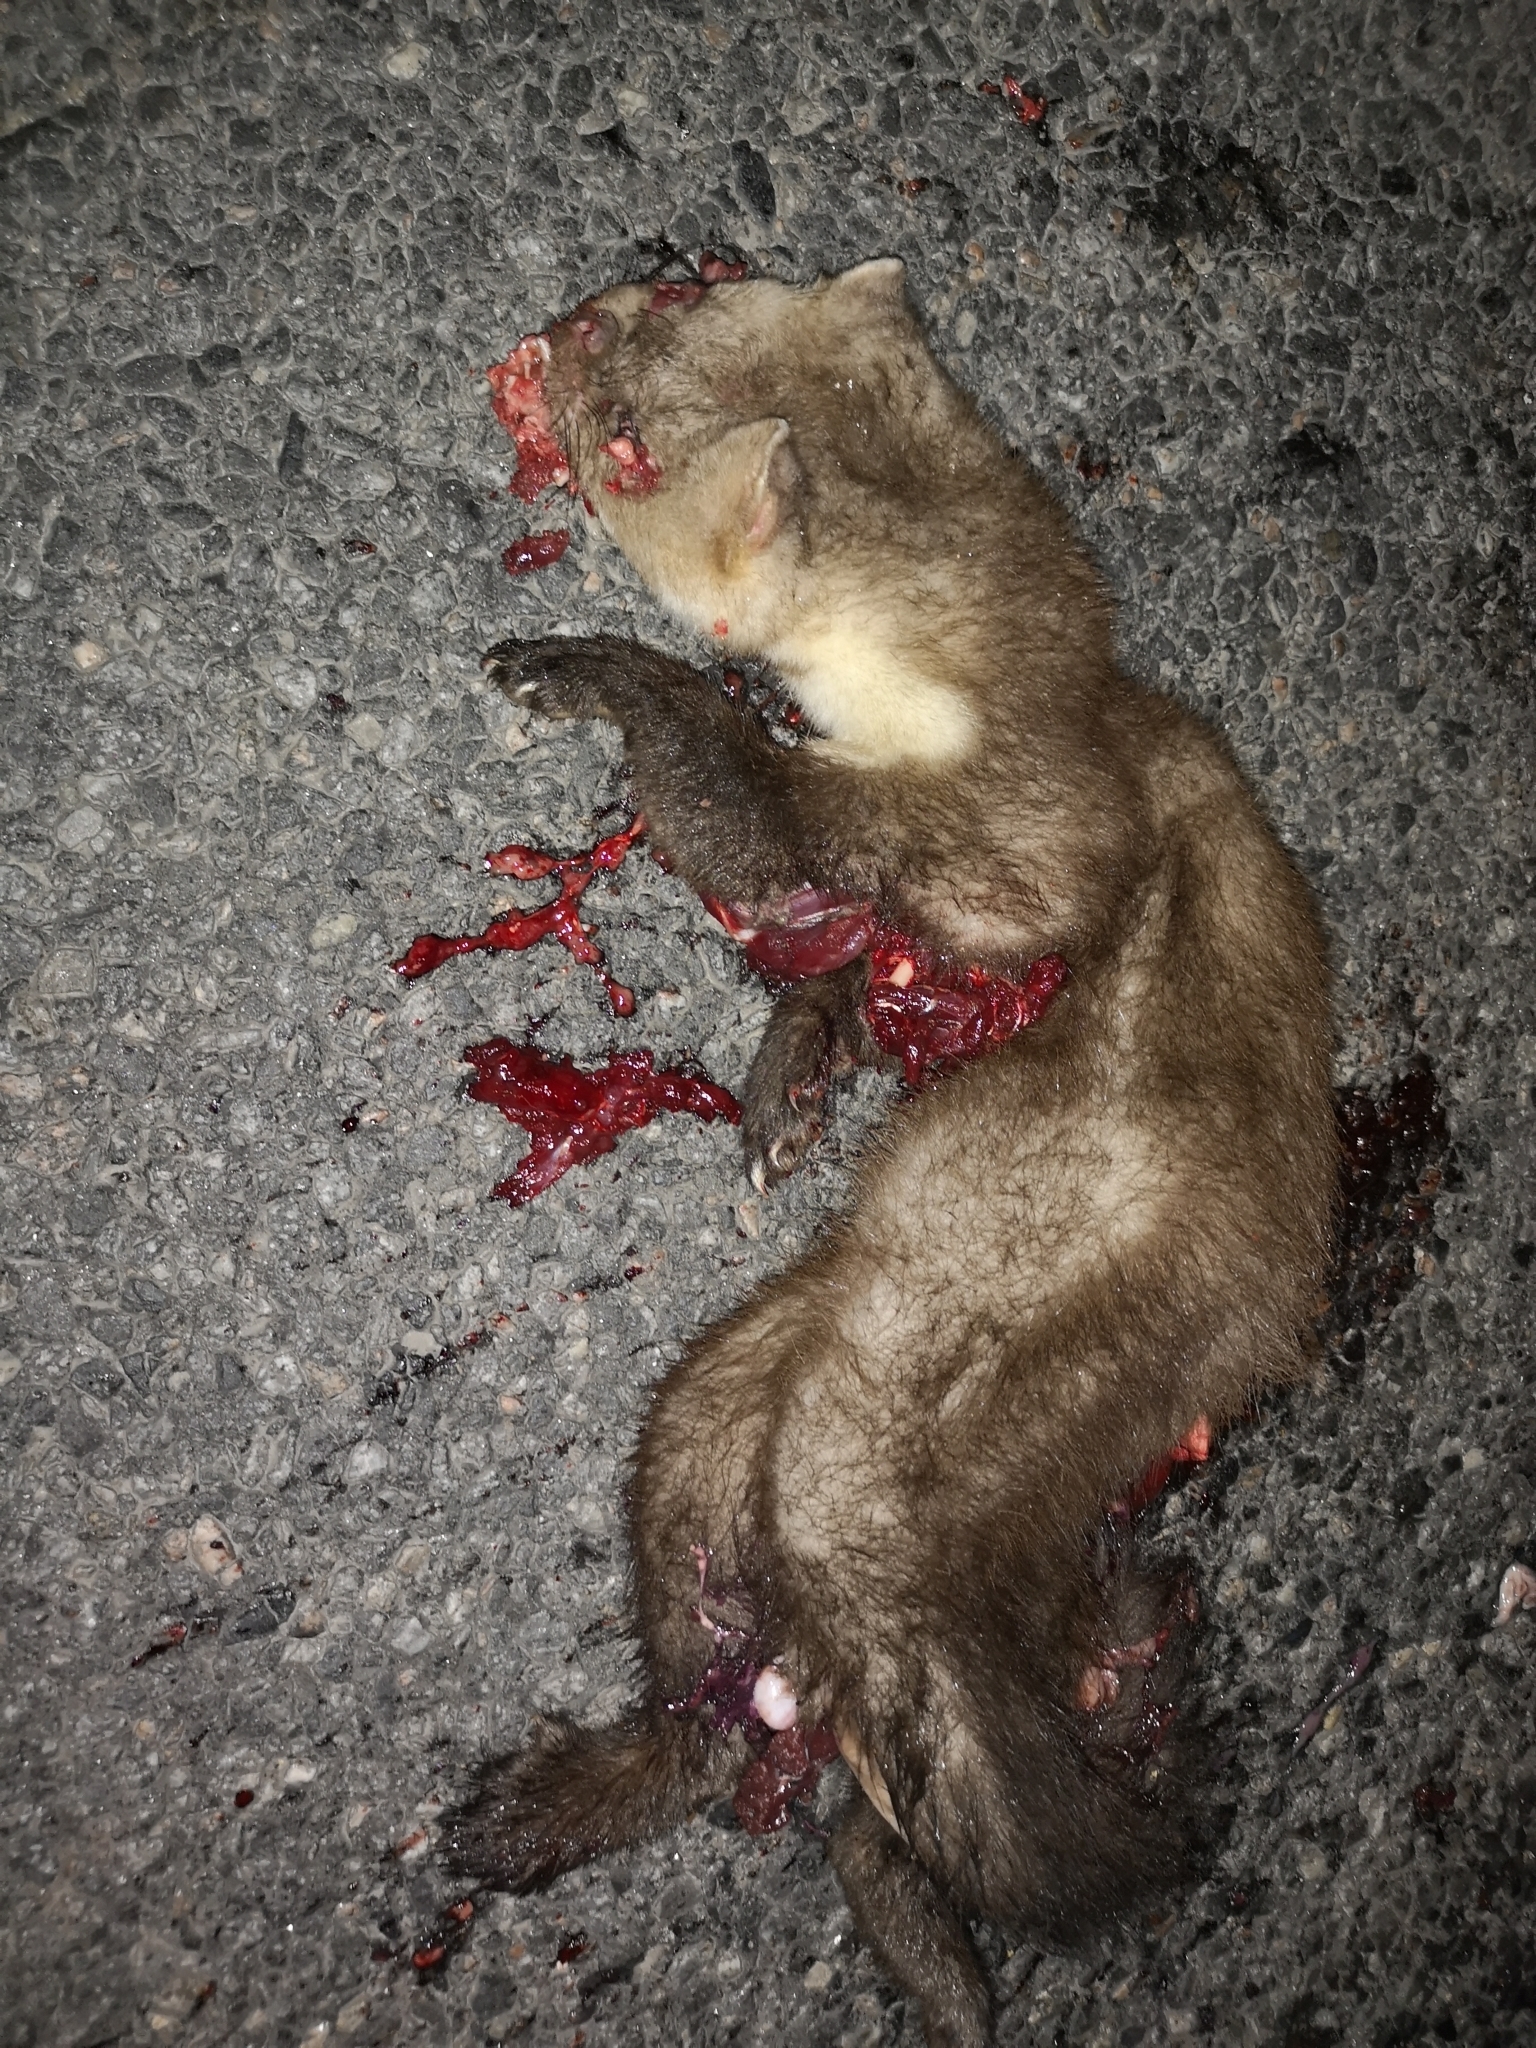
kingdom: Animalia
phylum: Chordata
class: Mammalia
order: Carnivora
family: Mustelidae
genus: Martes
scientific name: Martes foina
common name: Beech marten
